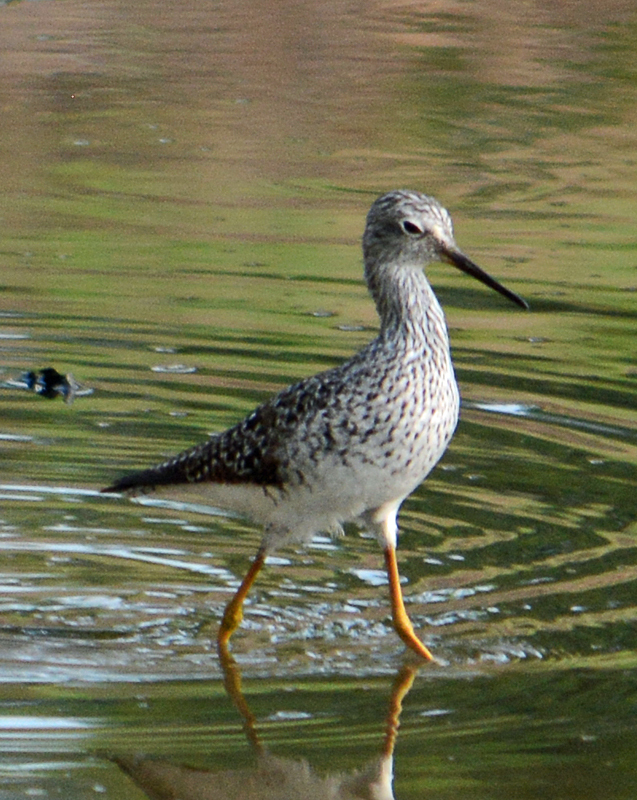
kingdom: Animalia
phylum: Chordata
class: Aves
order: Charadriiformes
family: Scolopacidae
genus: Tringa
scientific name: Tringa flavipes
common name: Lesser yellowlegs
